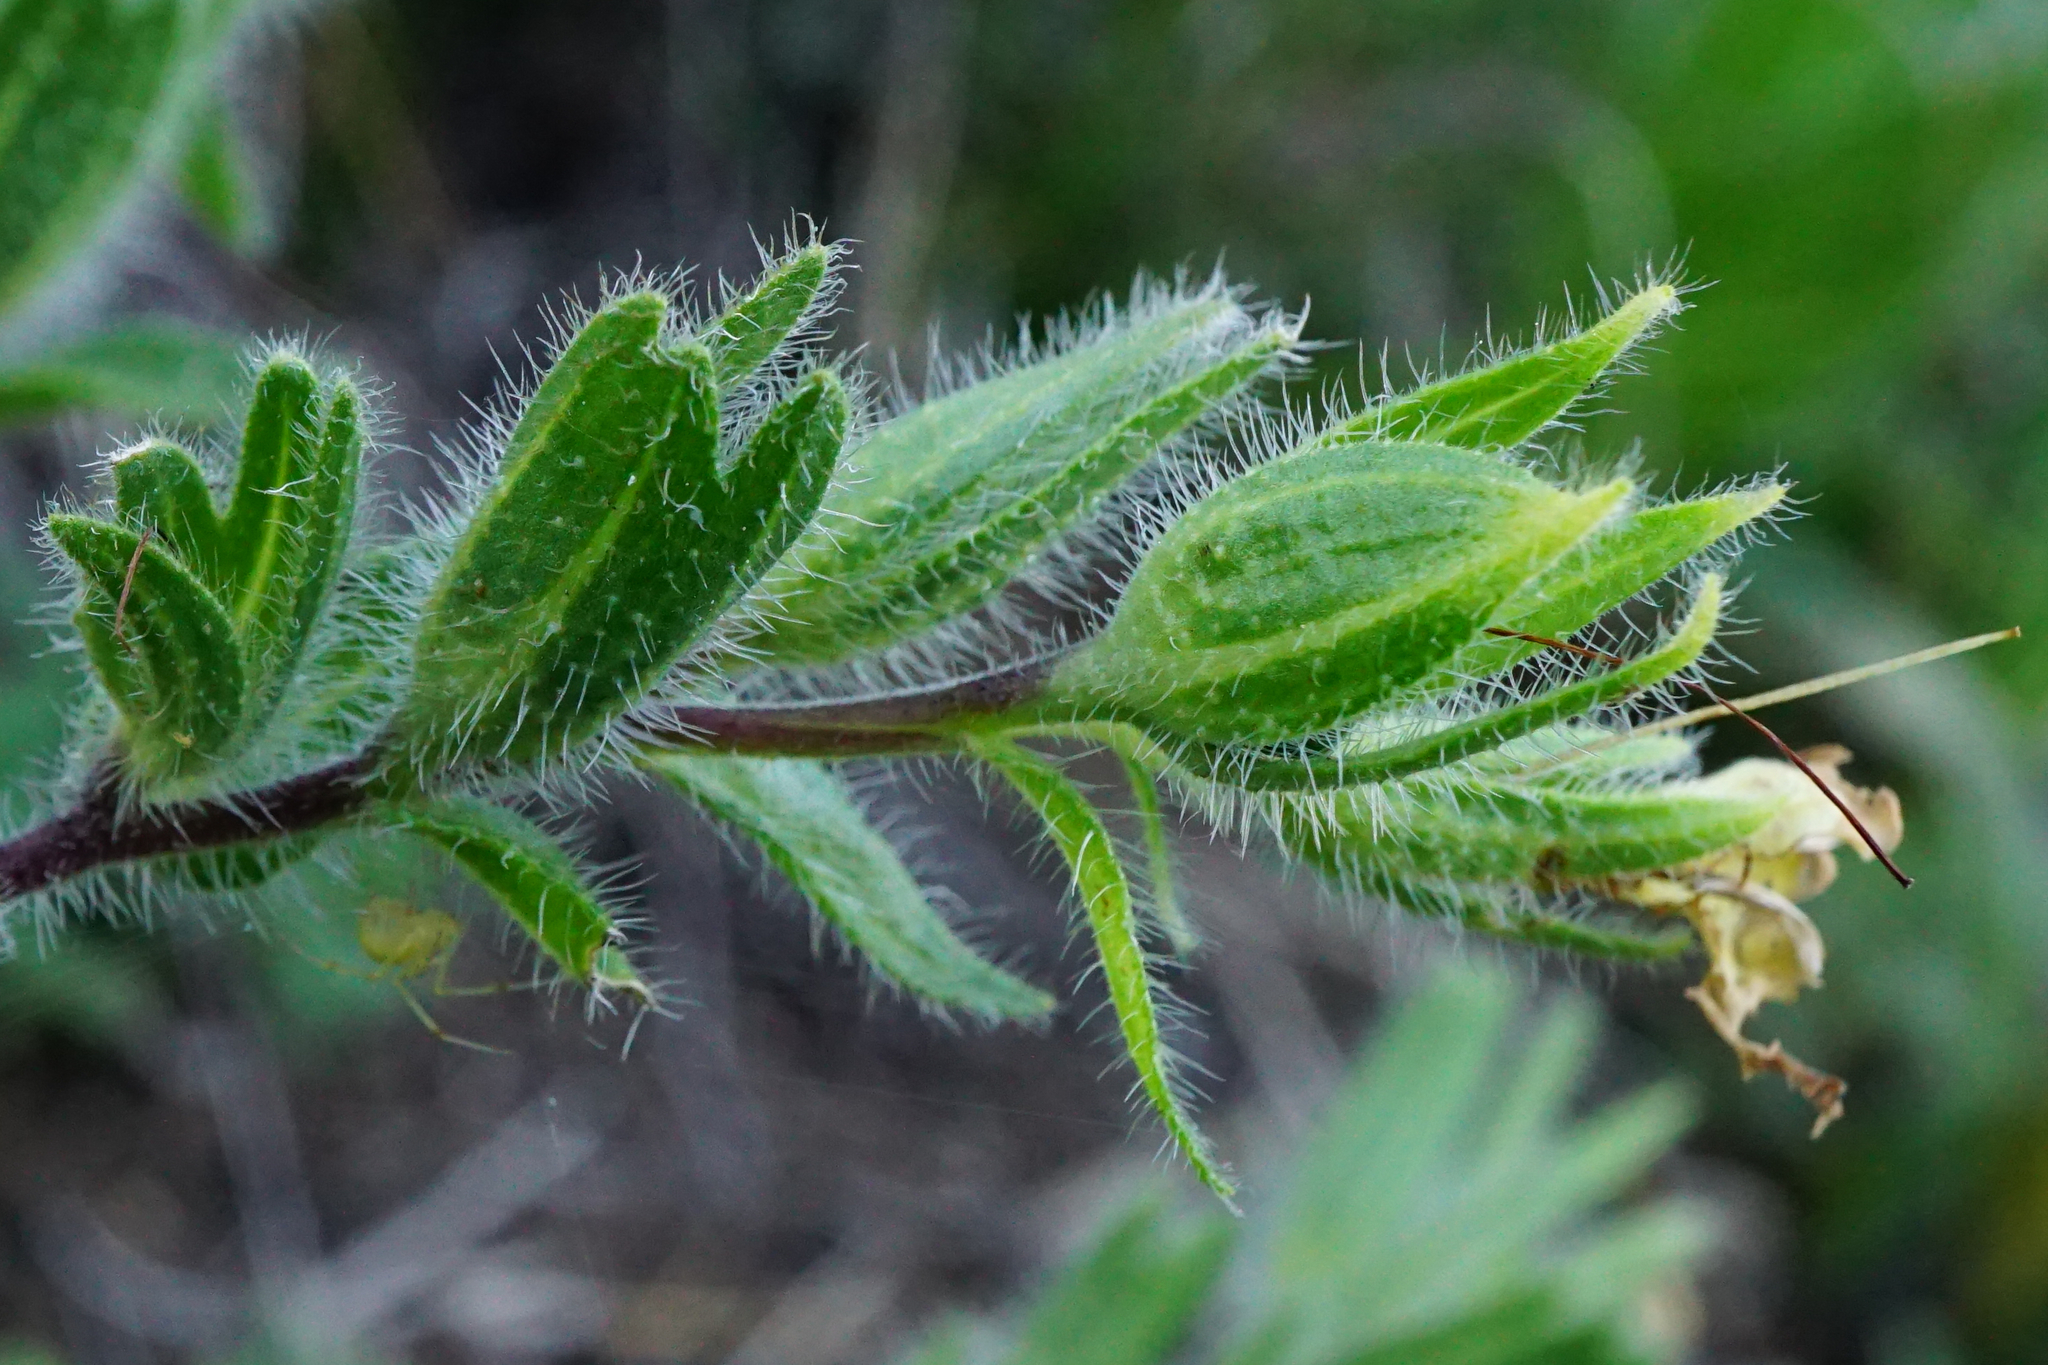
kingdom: Plantae
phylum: Tracheophyta
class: Magnoliopsida
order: Boraginales
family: Boraginaceae
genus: Onosma
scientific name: Onosma visianii
